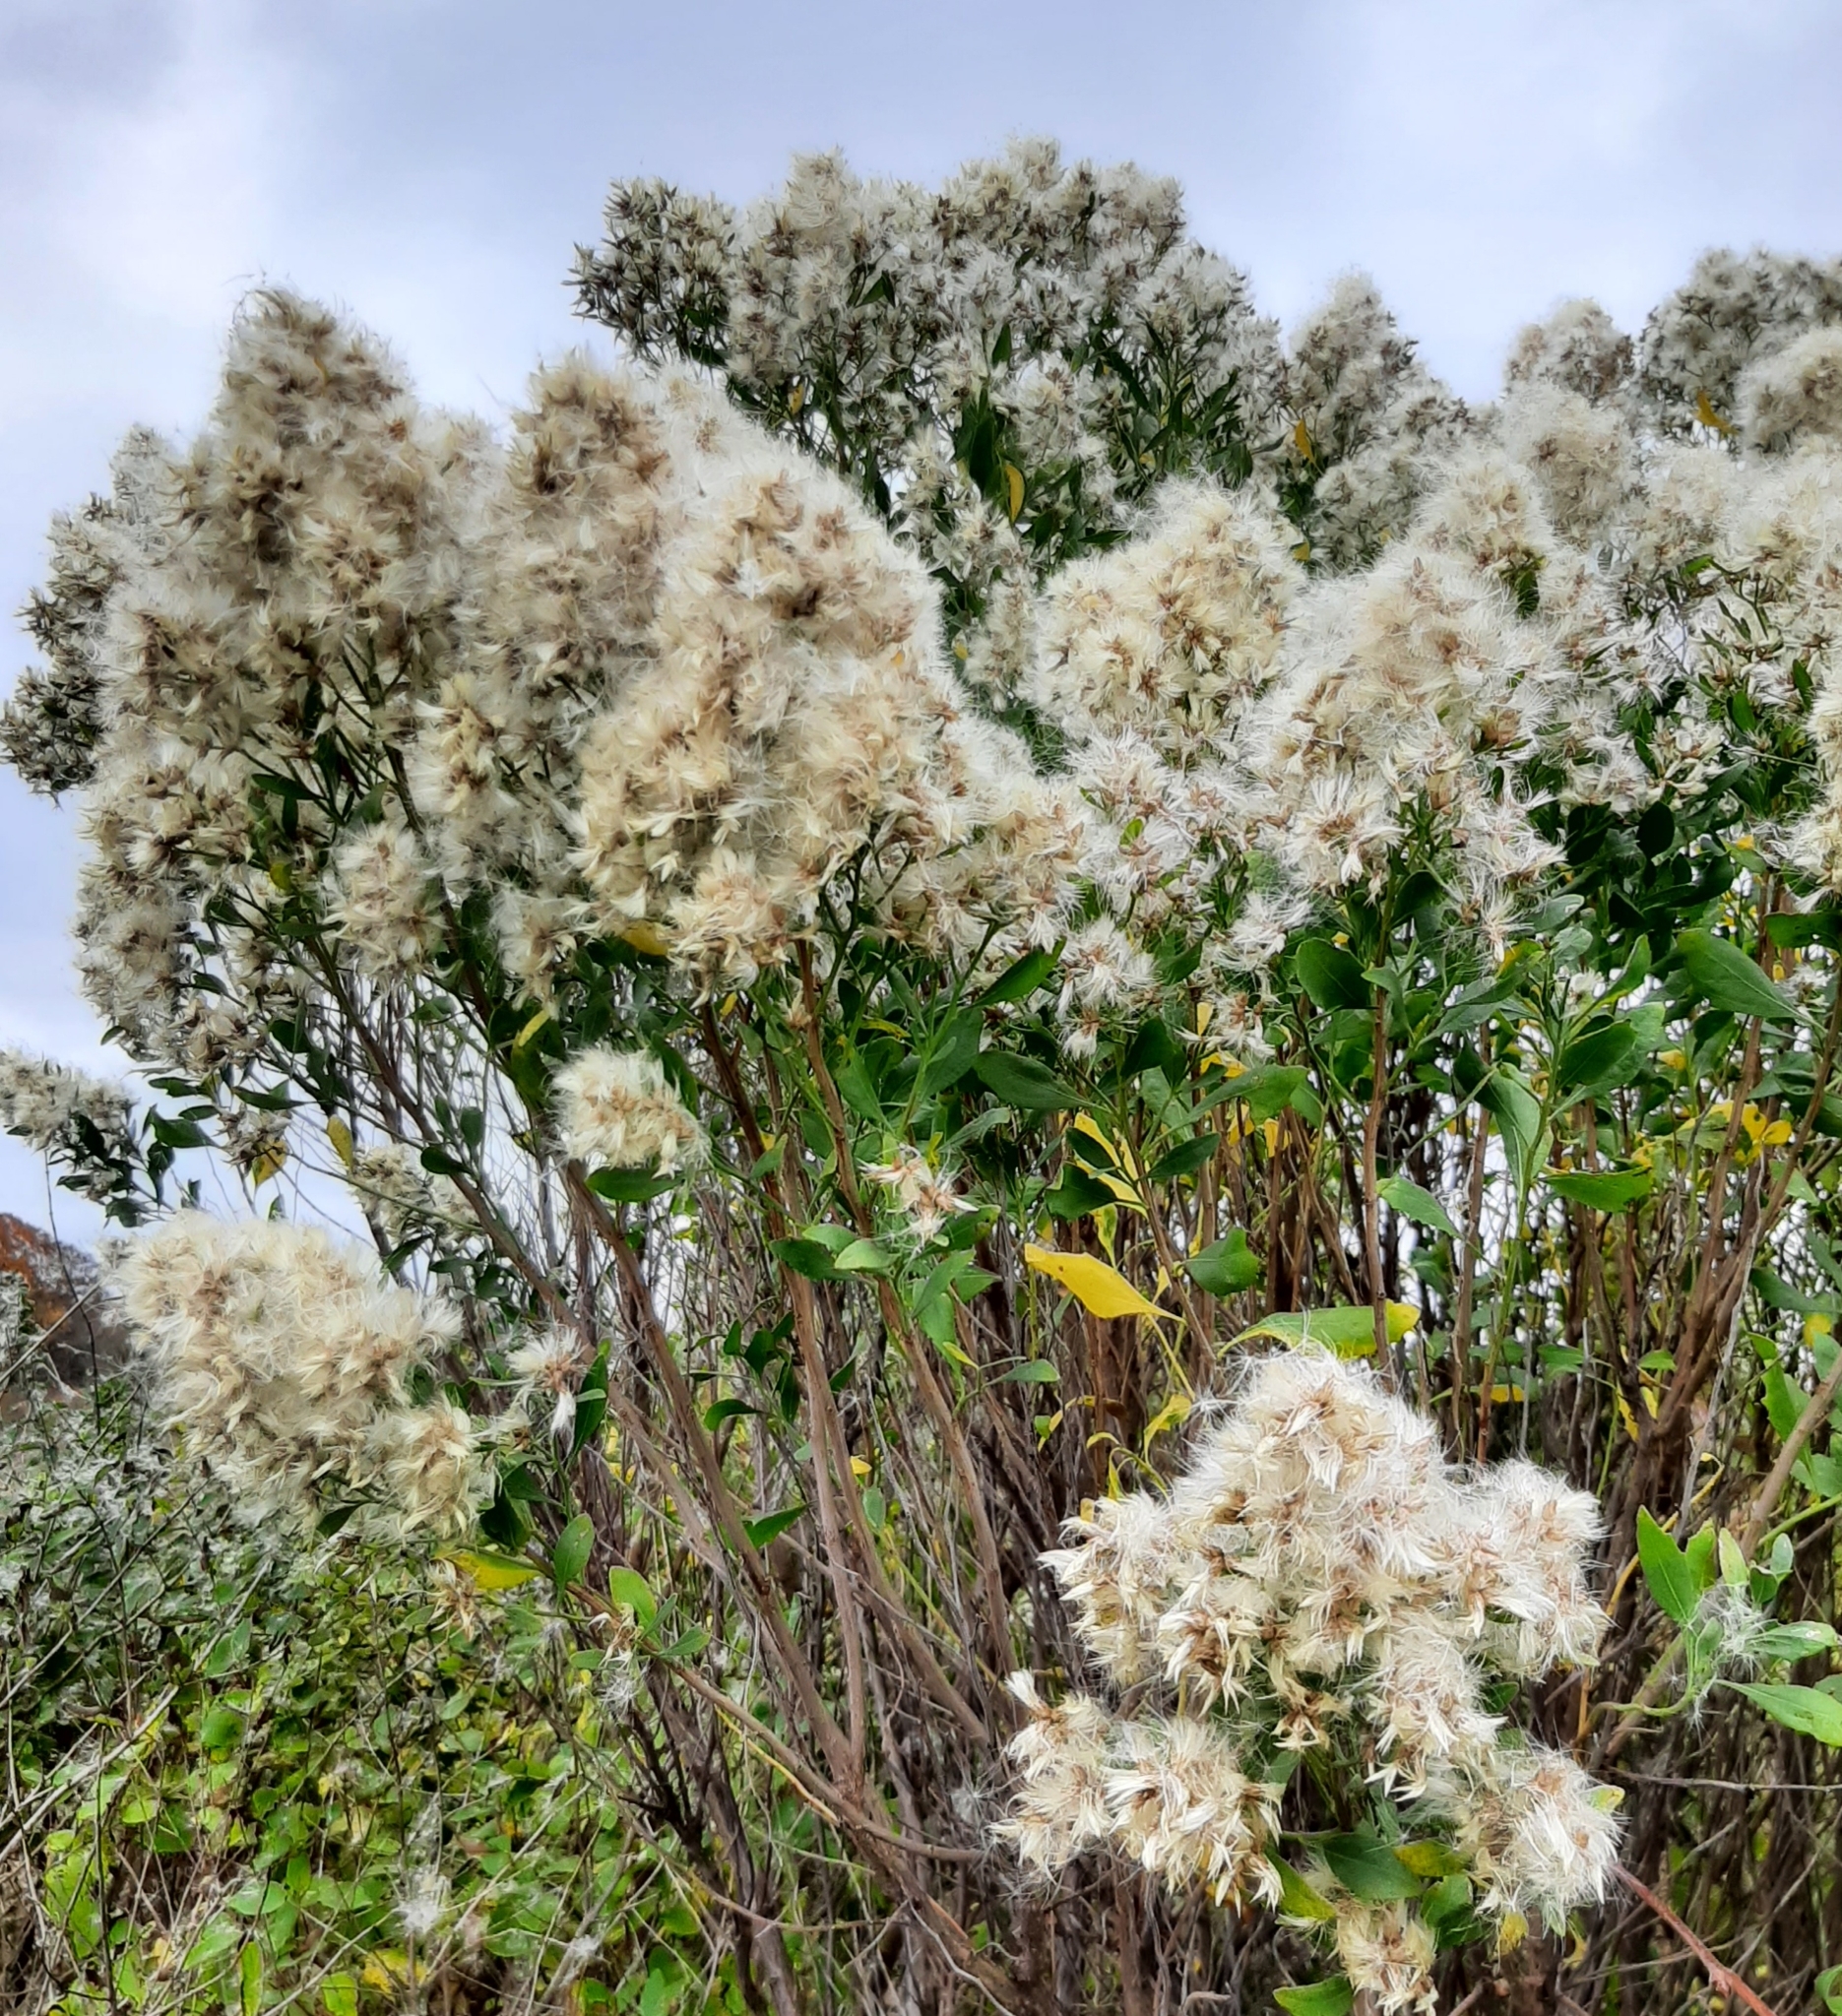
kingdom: Plantae
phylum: Tracheophyta
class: Magnoliopsida
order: Asterales
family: Asteraceae
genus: Baccharis
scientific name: Baccharis halimifolia
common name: Eastern baccharis
